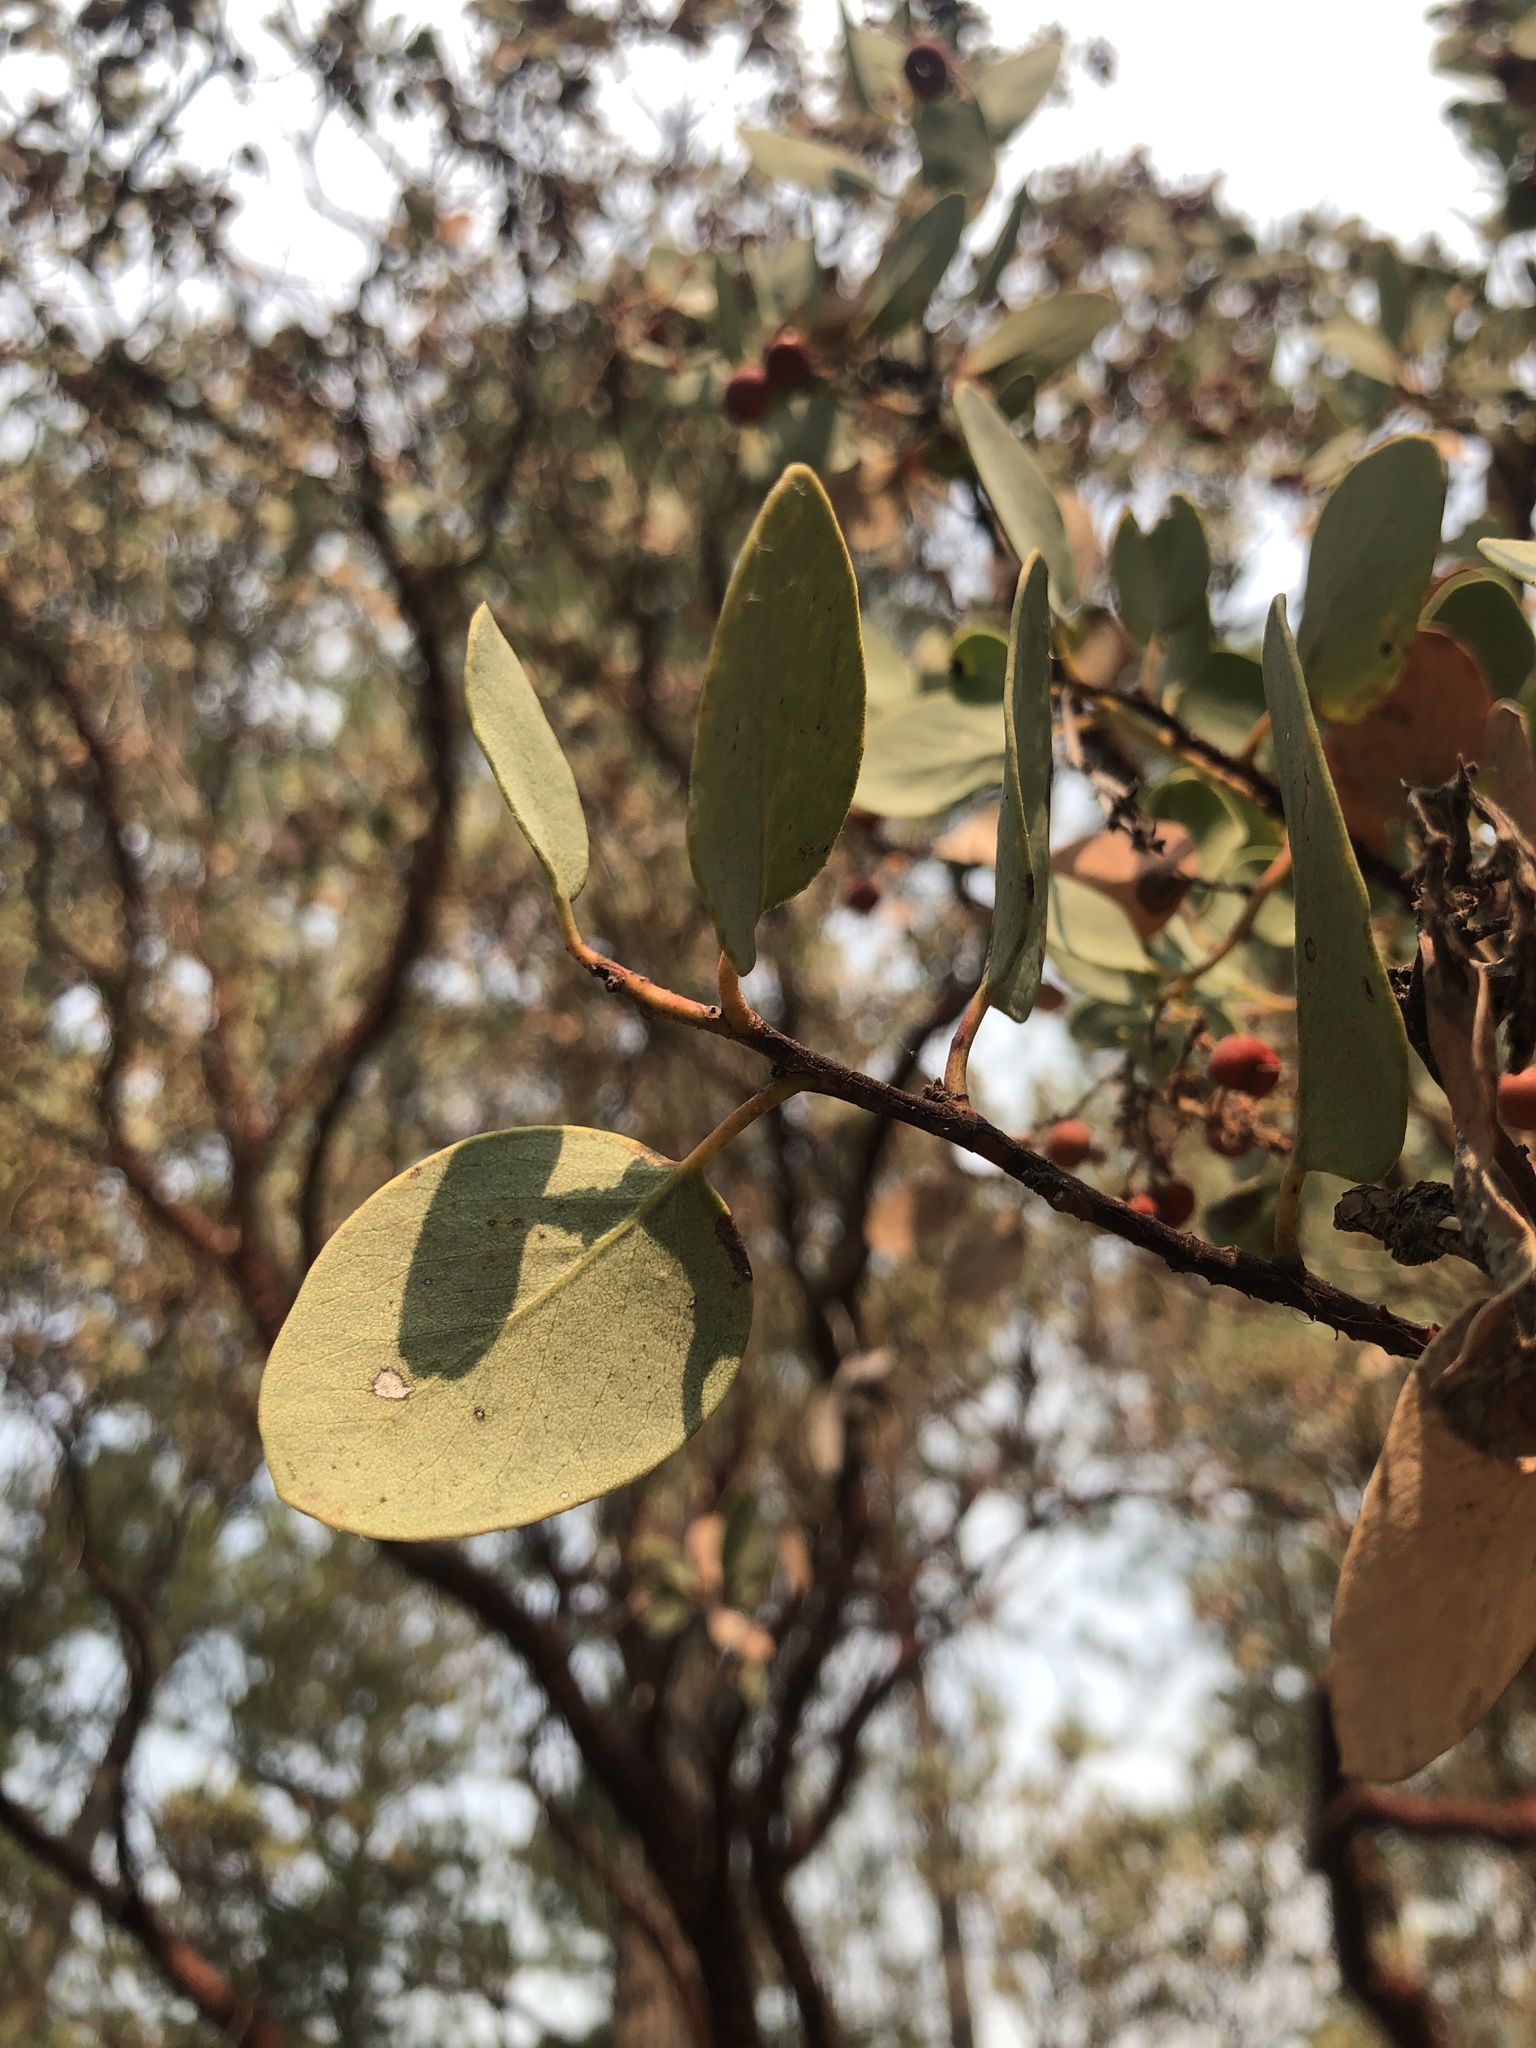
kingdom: Plantae
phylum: Tracheophyta
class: Magnoliopsida
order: Ericales
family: Ericaceae
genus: Arctostaphylos
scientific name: Arctostaphylos viscida
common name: White-leaf manzanita
